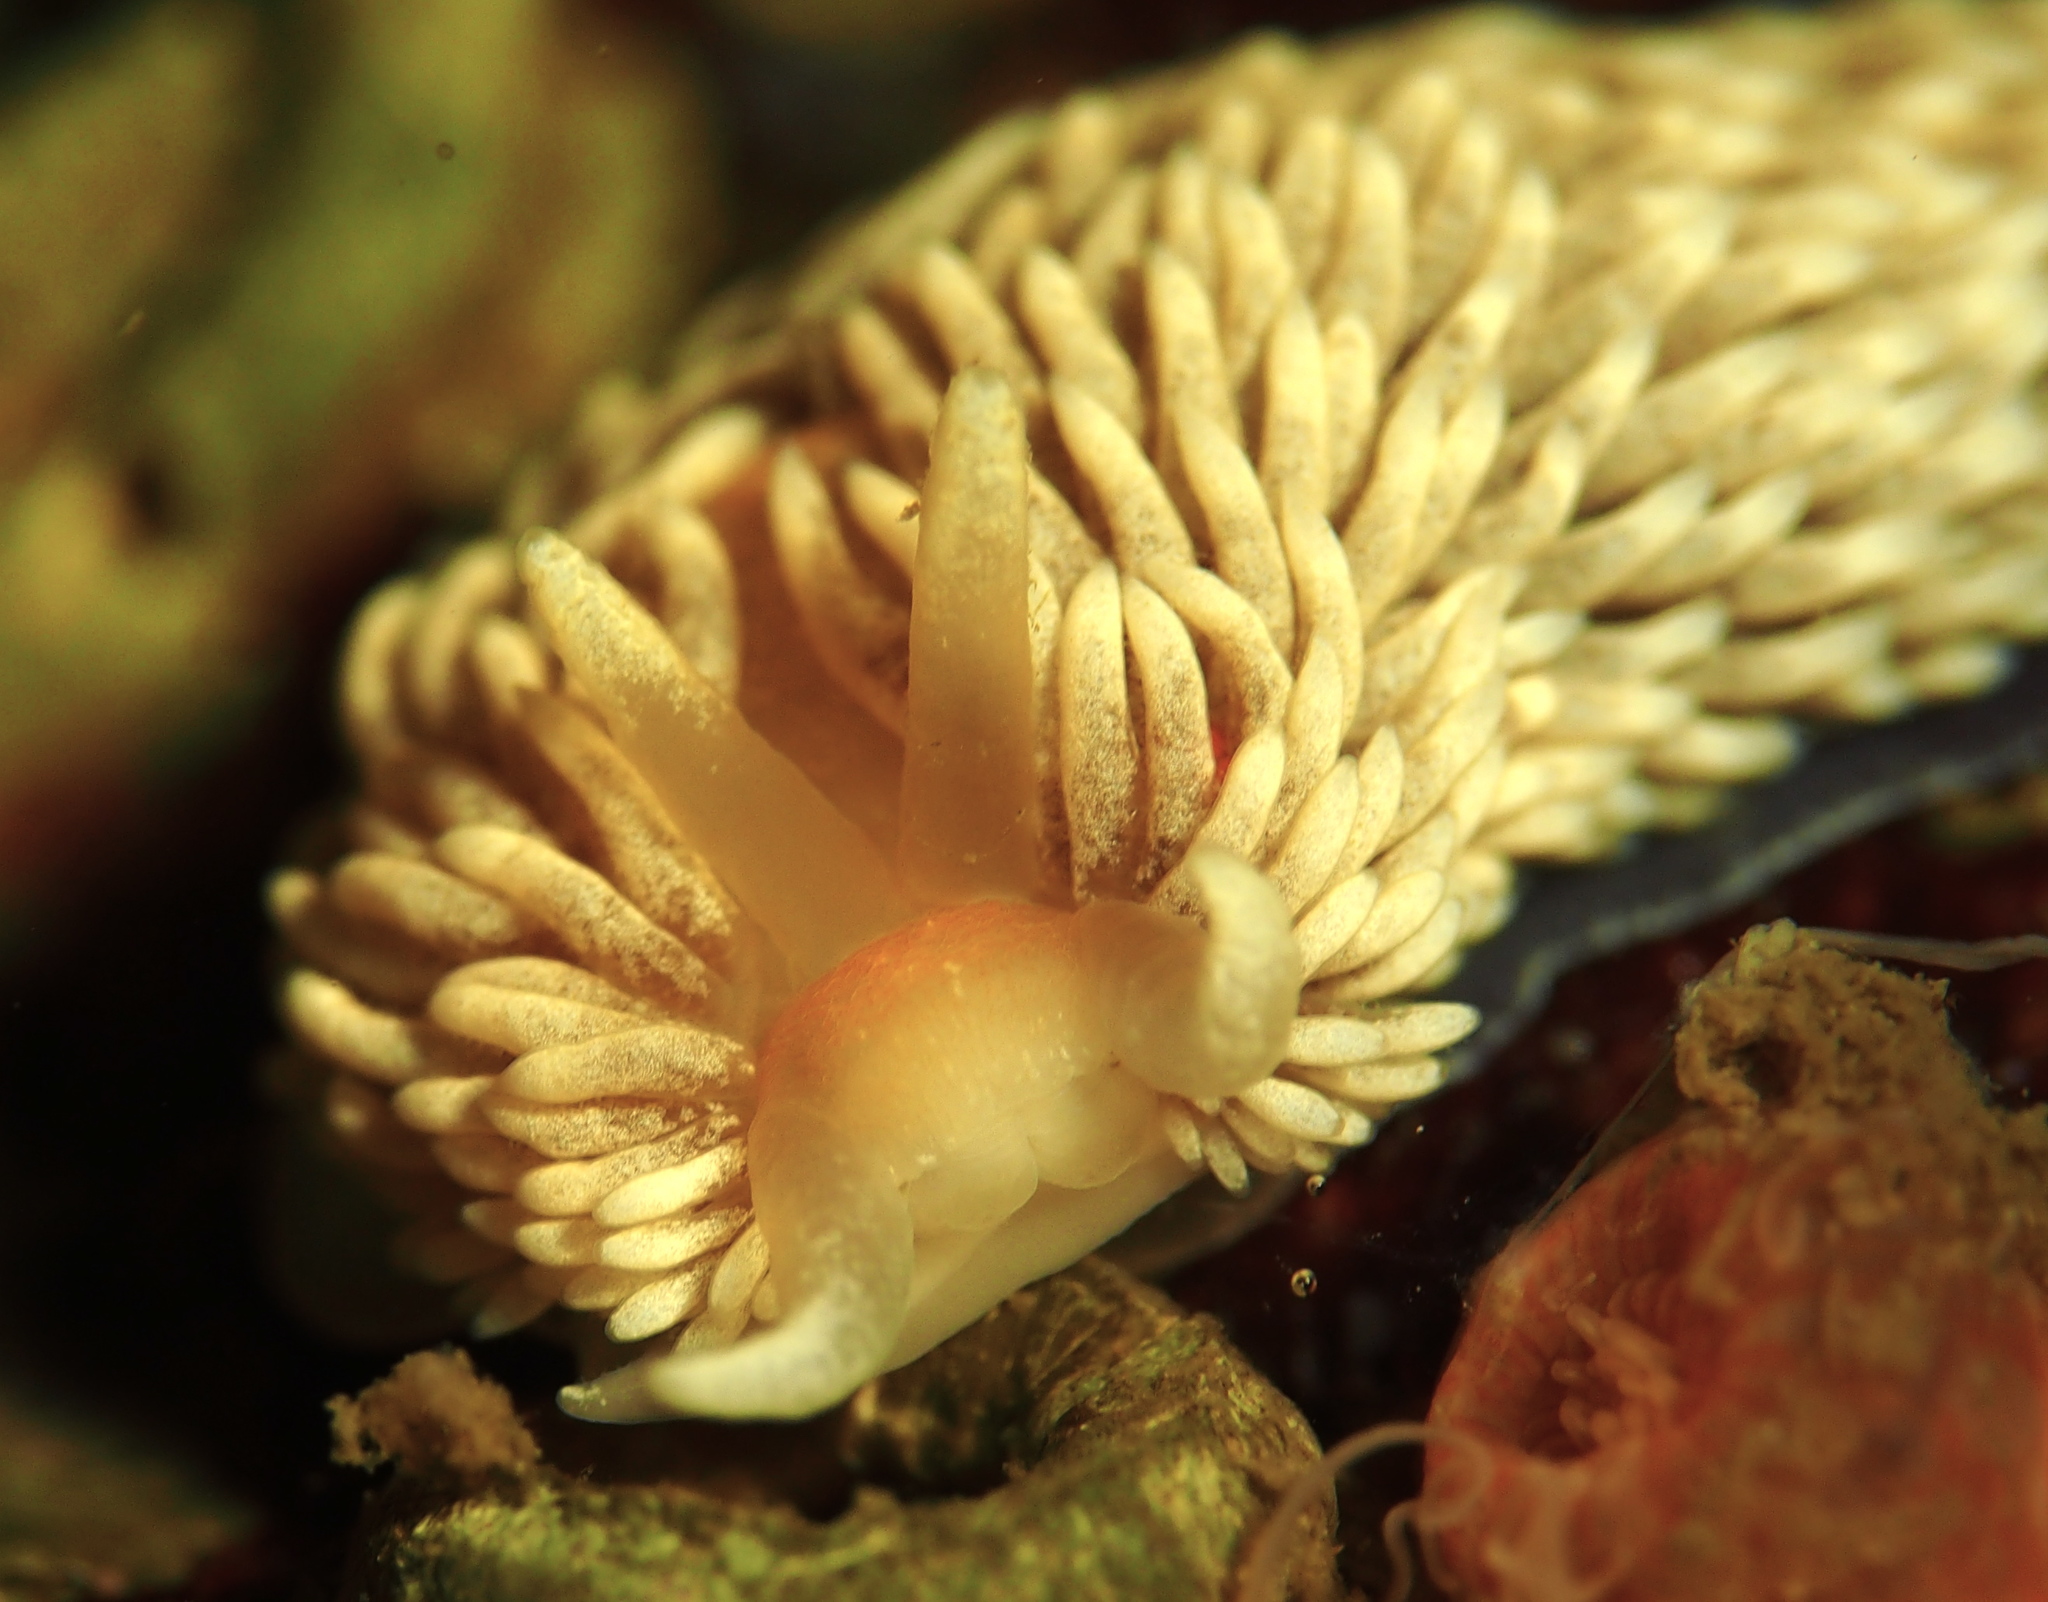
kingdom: Animalia
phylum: Mollusca
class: Gastropoda
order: Nudibranchia
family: Aeolidiidae
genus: Aeolidiella
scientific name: Aeolidiella glauca
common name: Orange-brown aeolid
